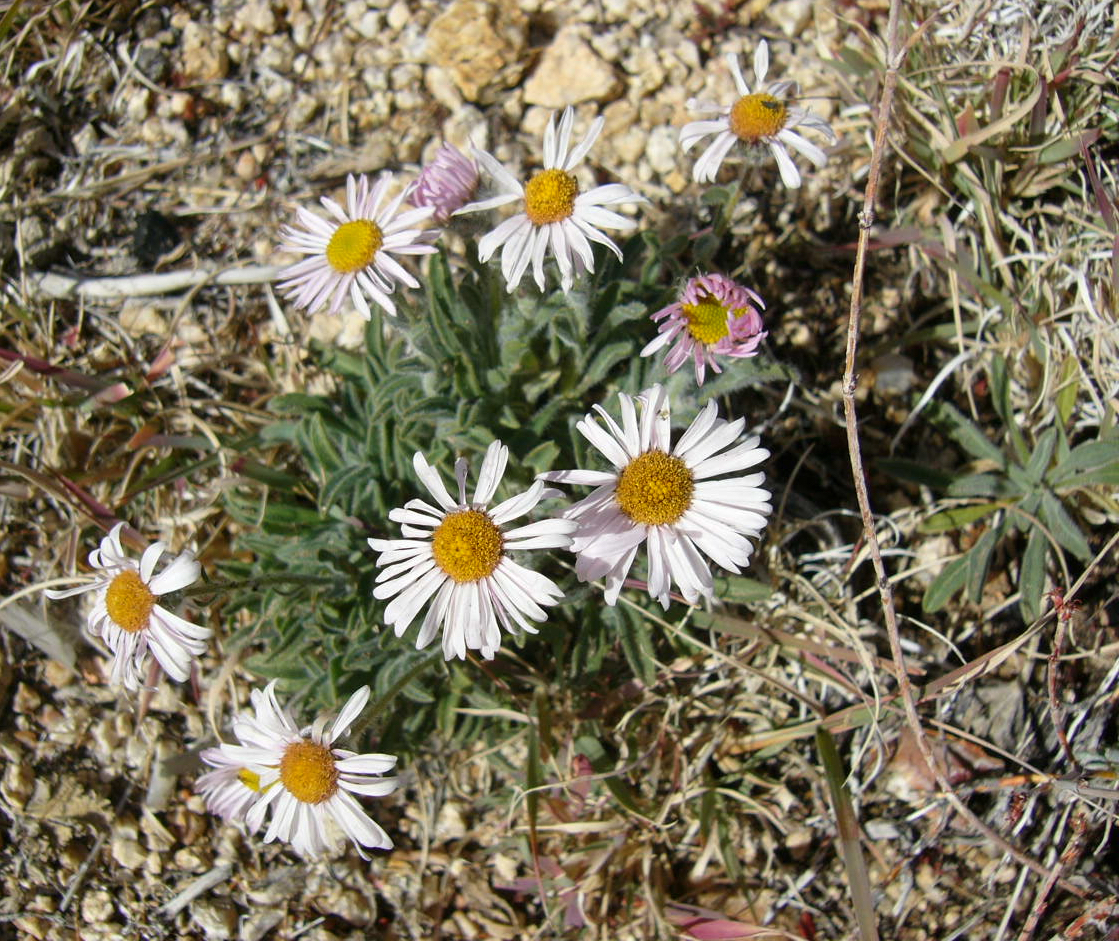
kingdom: Plantae
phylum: Tracheophyta
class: Magnoliopsida
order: Asterales
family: Asteraceae
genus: Erigeron
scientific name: Erigeron concinnus
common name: Navajo fleabane
